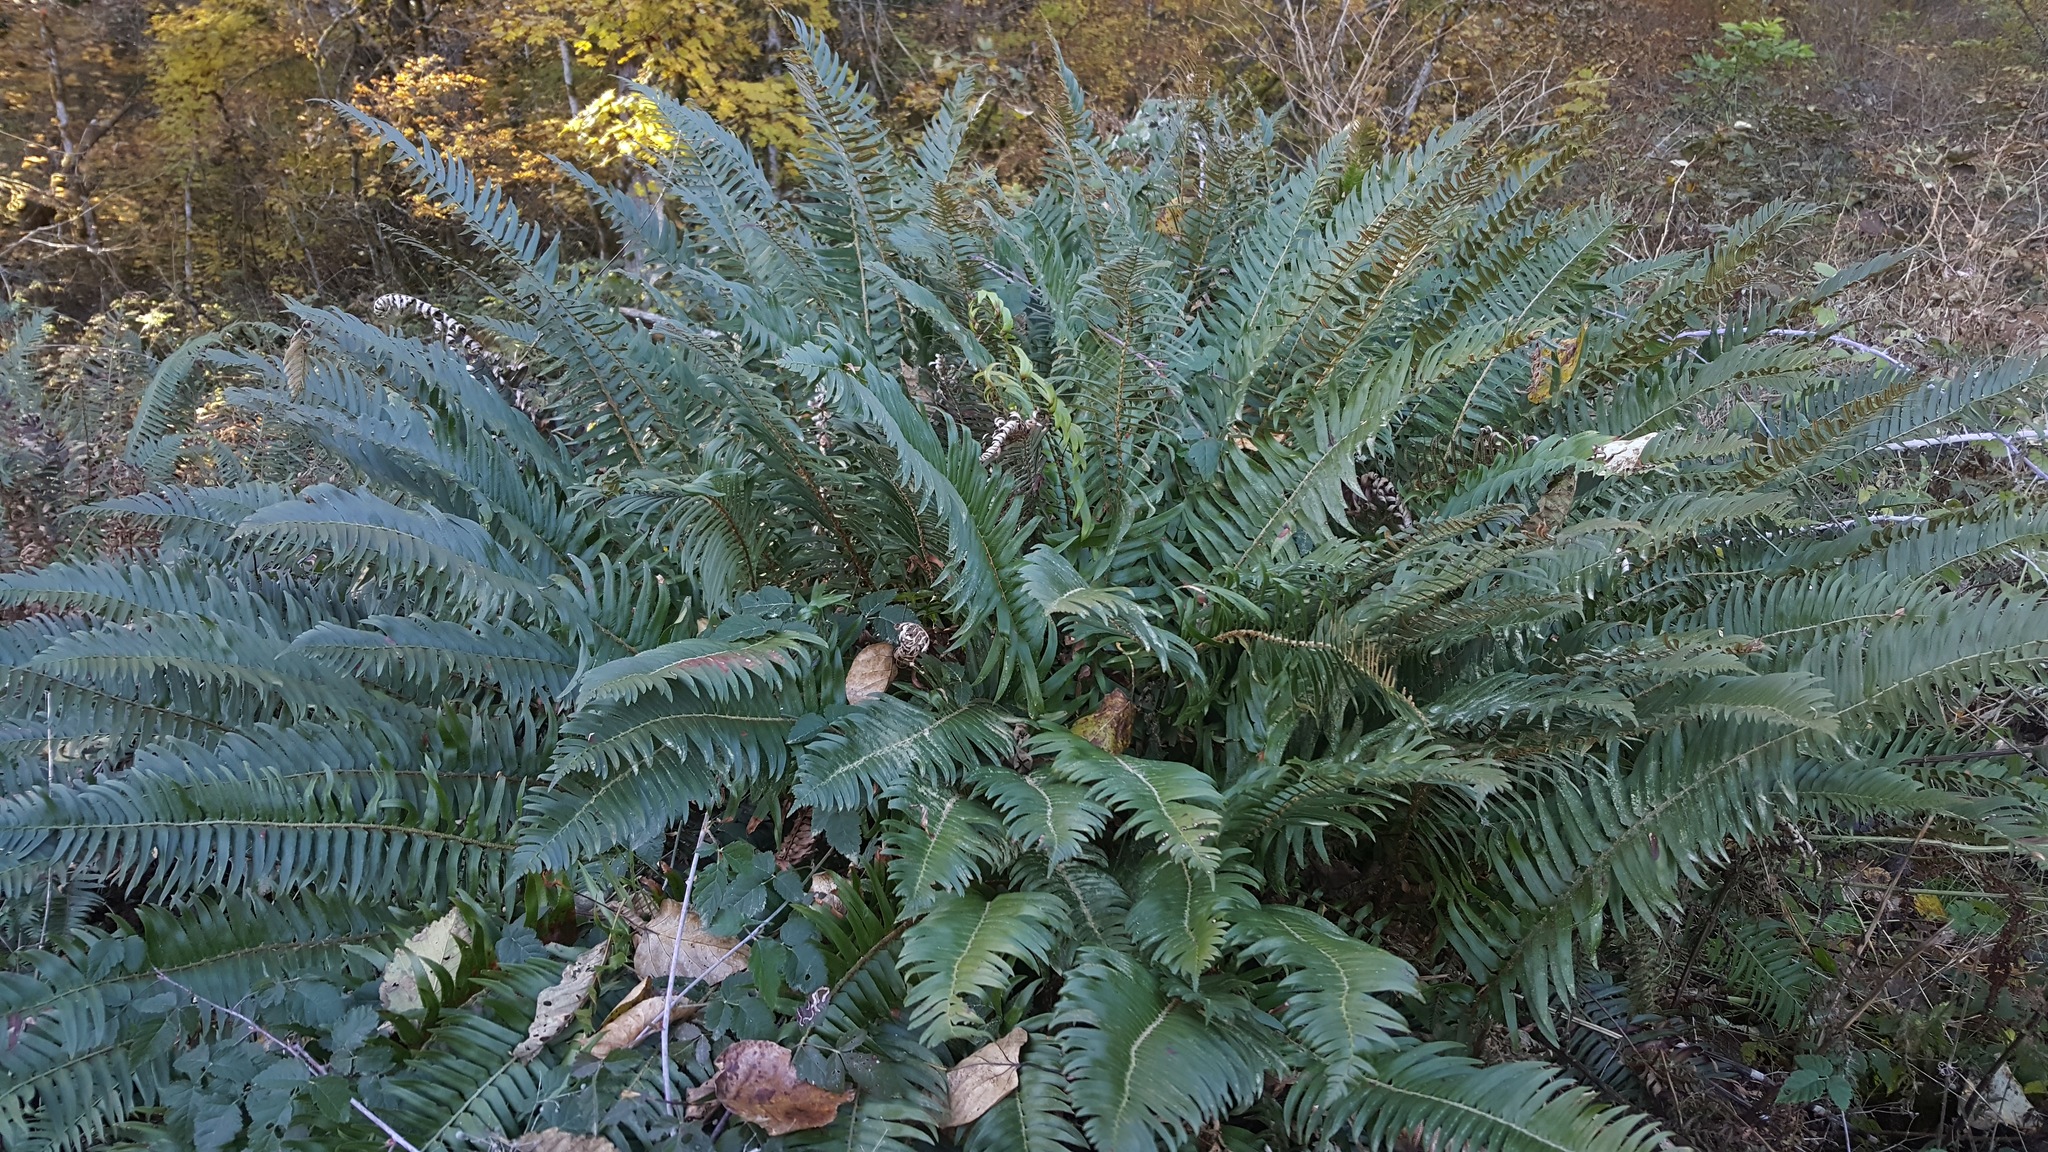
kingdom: Plantae
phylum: Tracheophyta
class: Polypodiopsida
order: Polypodiales
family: Dryopteridaceae
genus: Polystichum
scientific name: Polystichum munitum
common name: Western sword-fern
